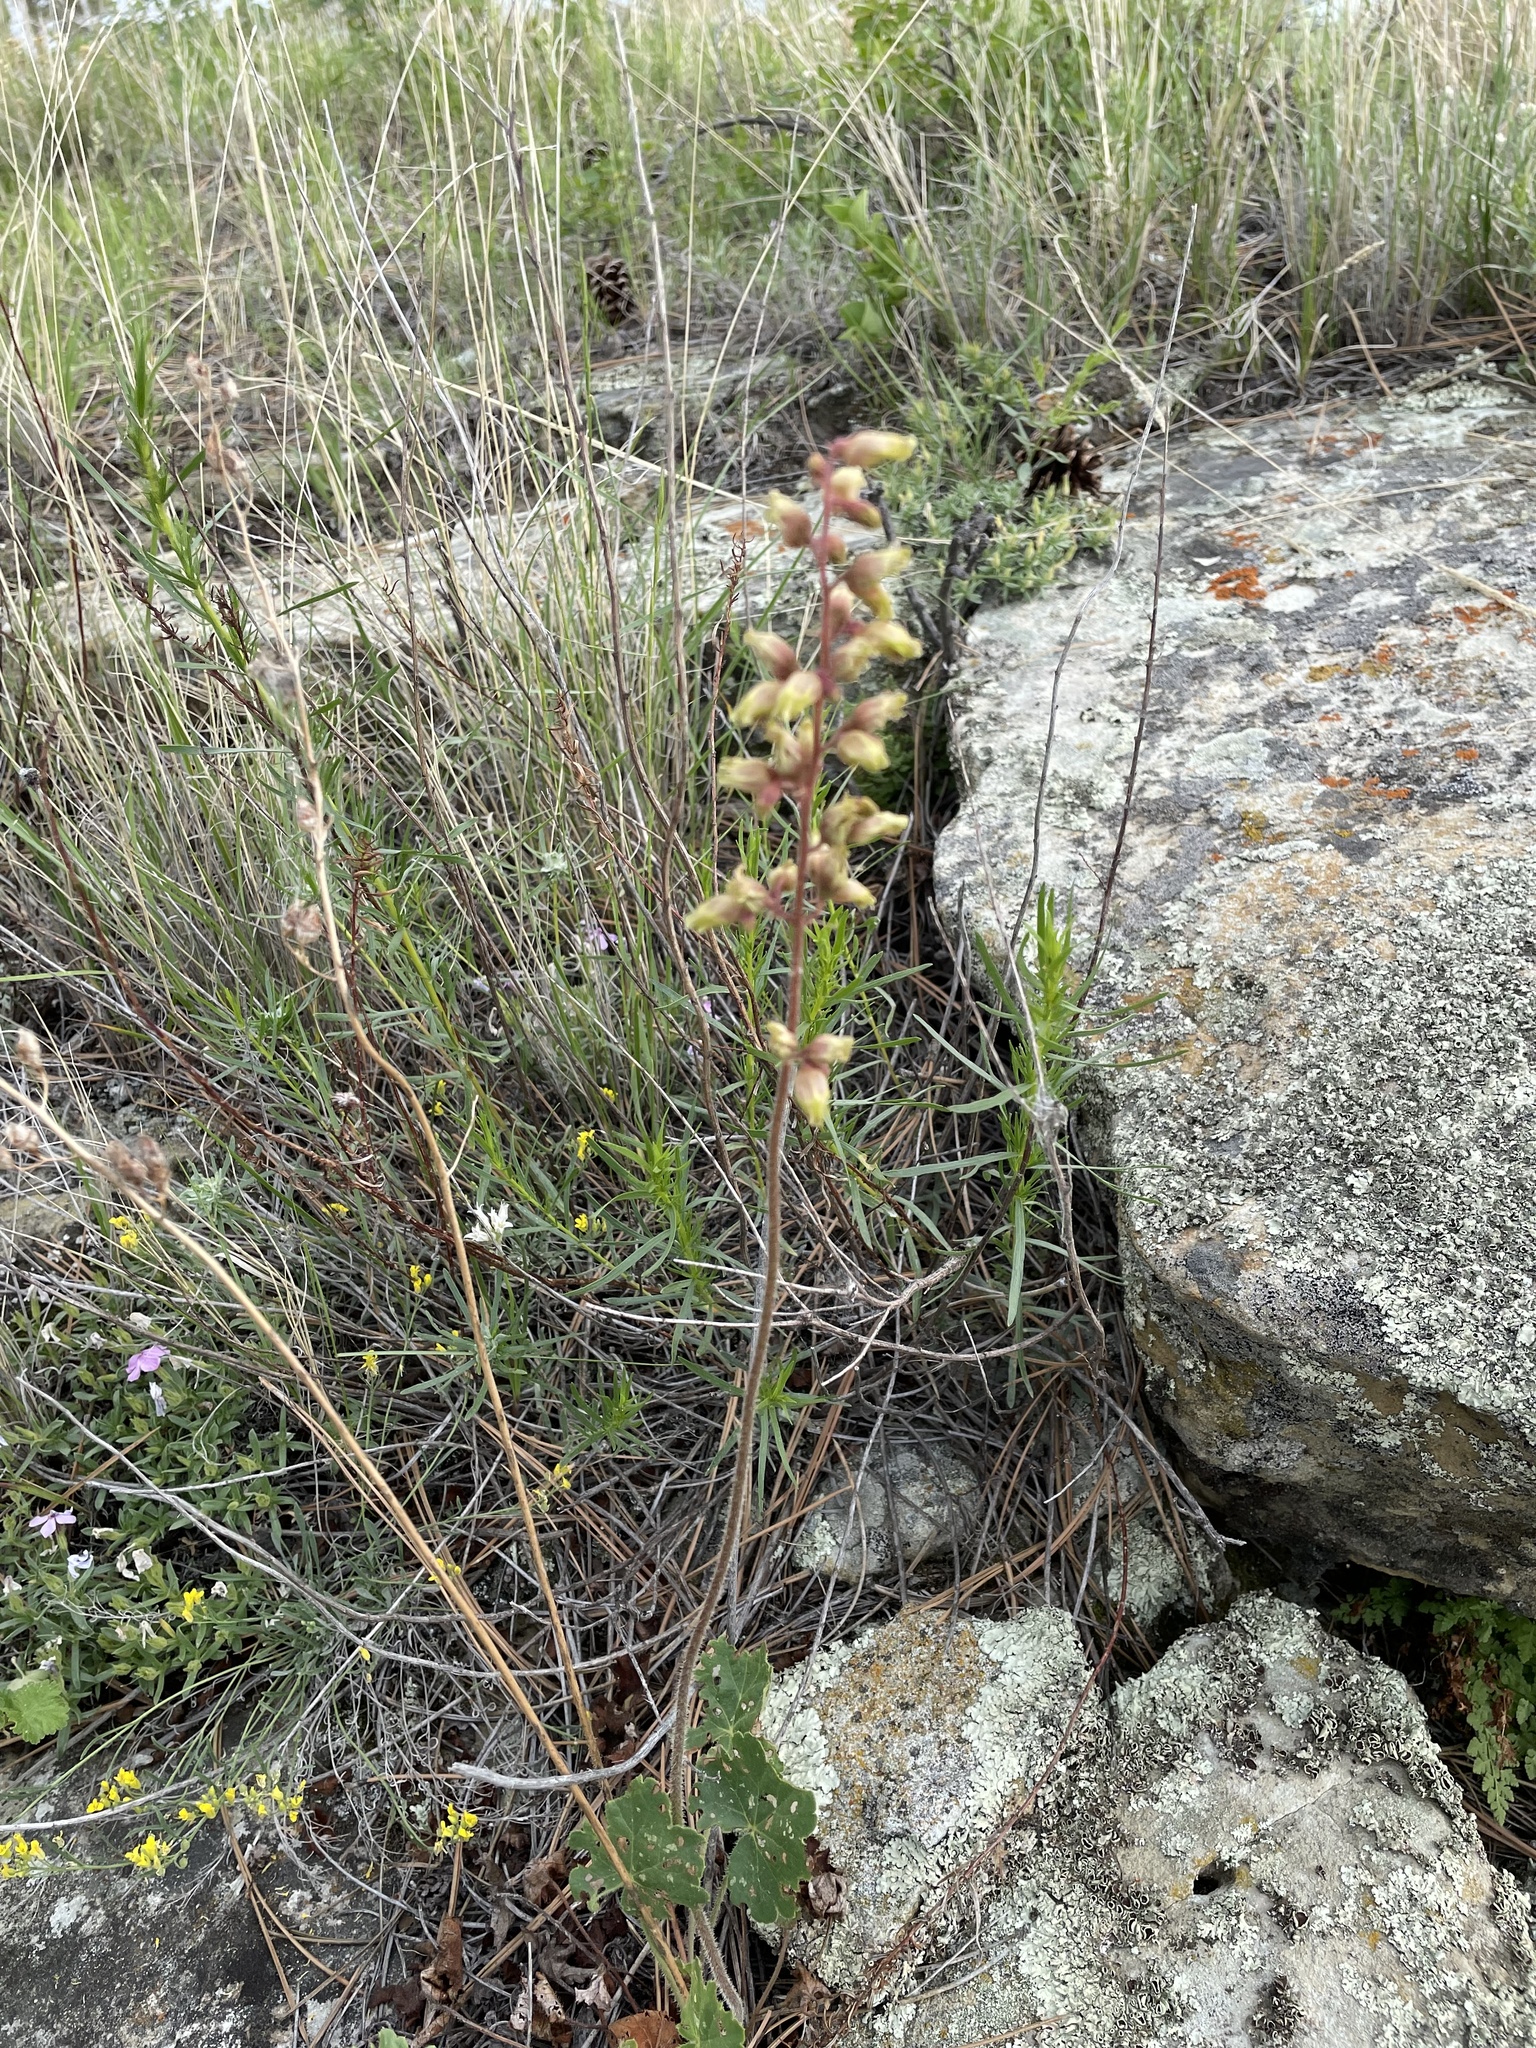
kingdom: Plantae
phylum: Tracheophyta
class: Magnoliopsida
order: Saxifragales
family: Saxifragaceae
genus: Heuchera
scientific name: Heuchera richardsonii
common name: Richardson's alumroot
